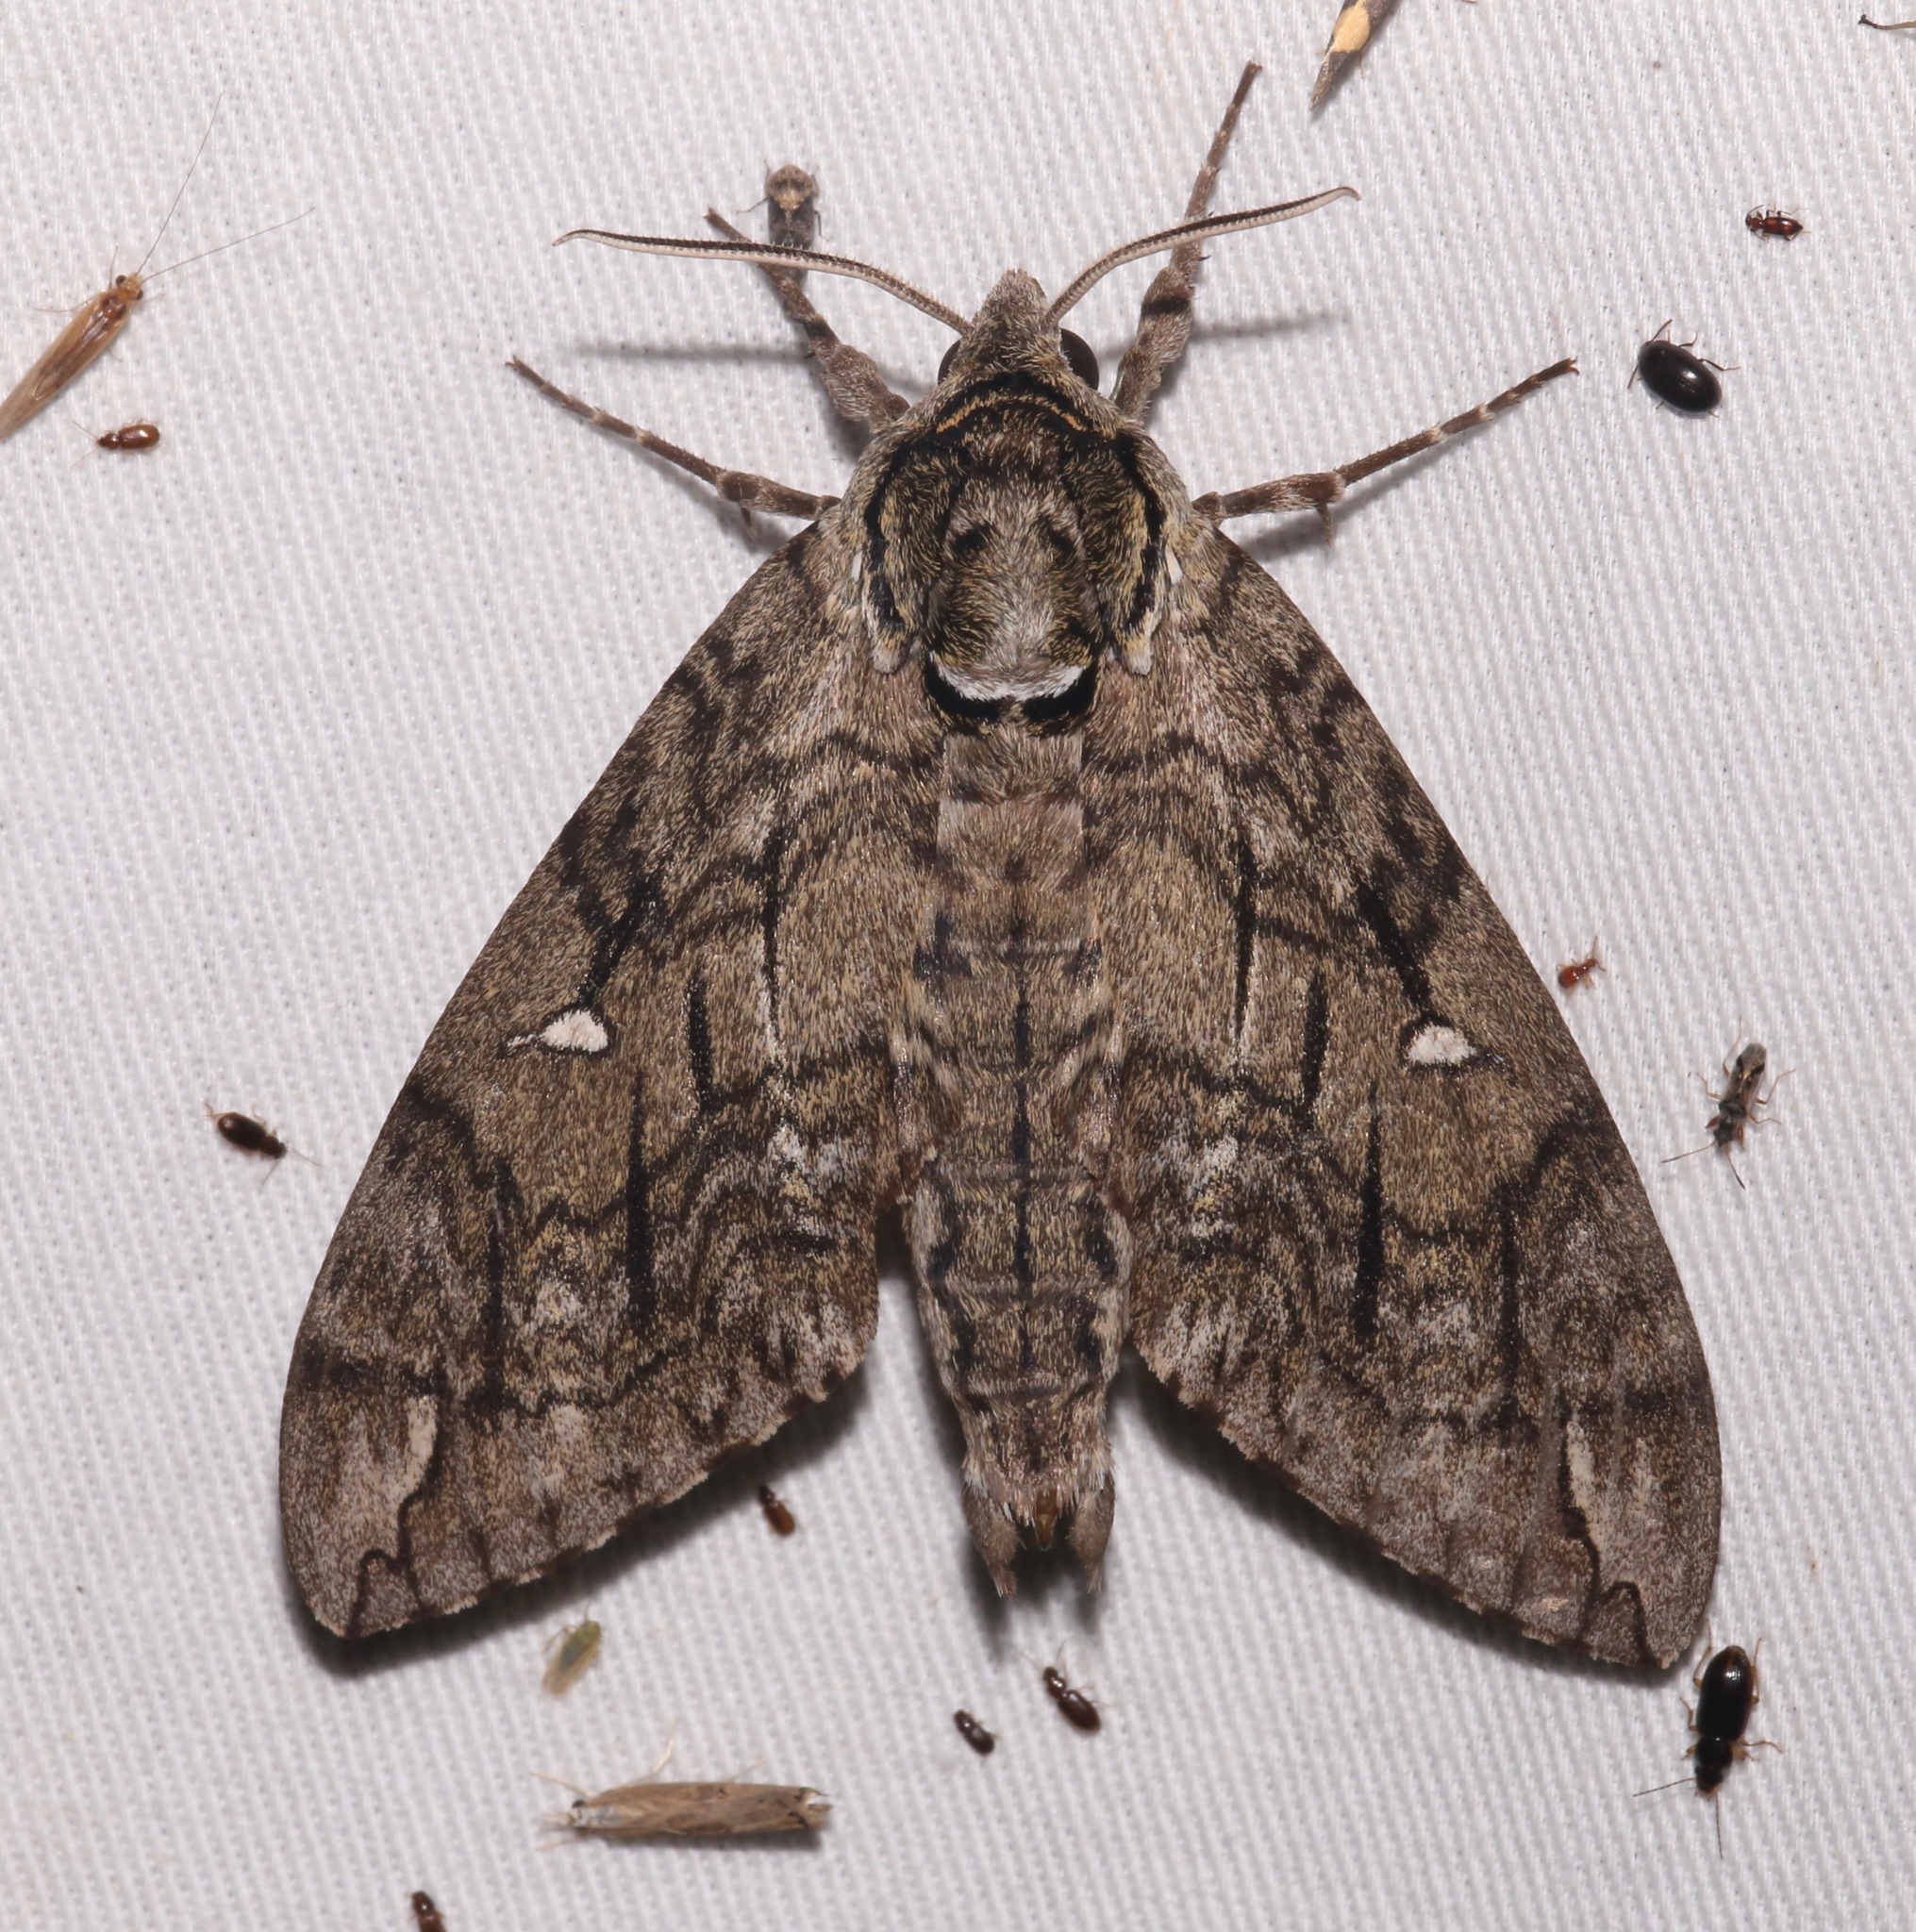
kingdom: Animalia
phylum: Arthropoda
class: Insecta
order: Lepidoptera
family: Sphingidae
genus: Ceratomia
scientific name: Ceratomia undulosa
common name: Waved sphinx
